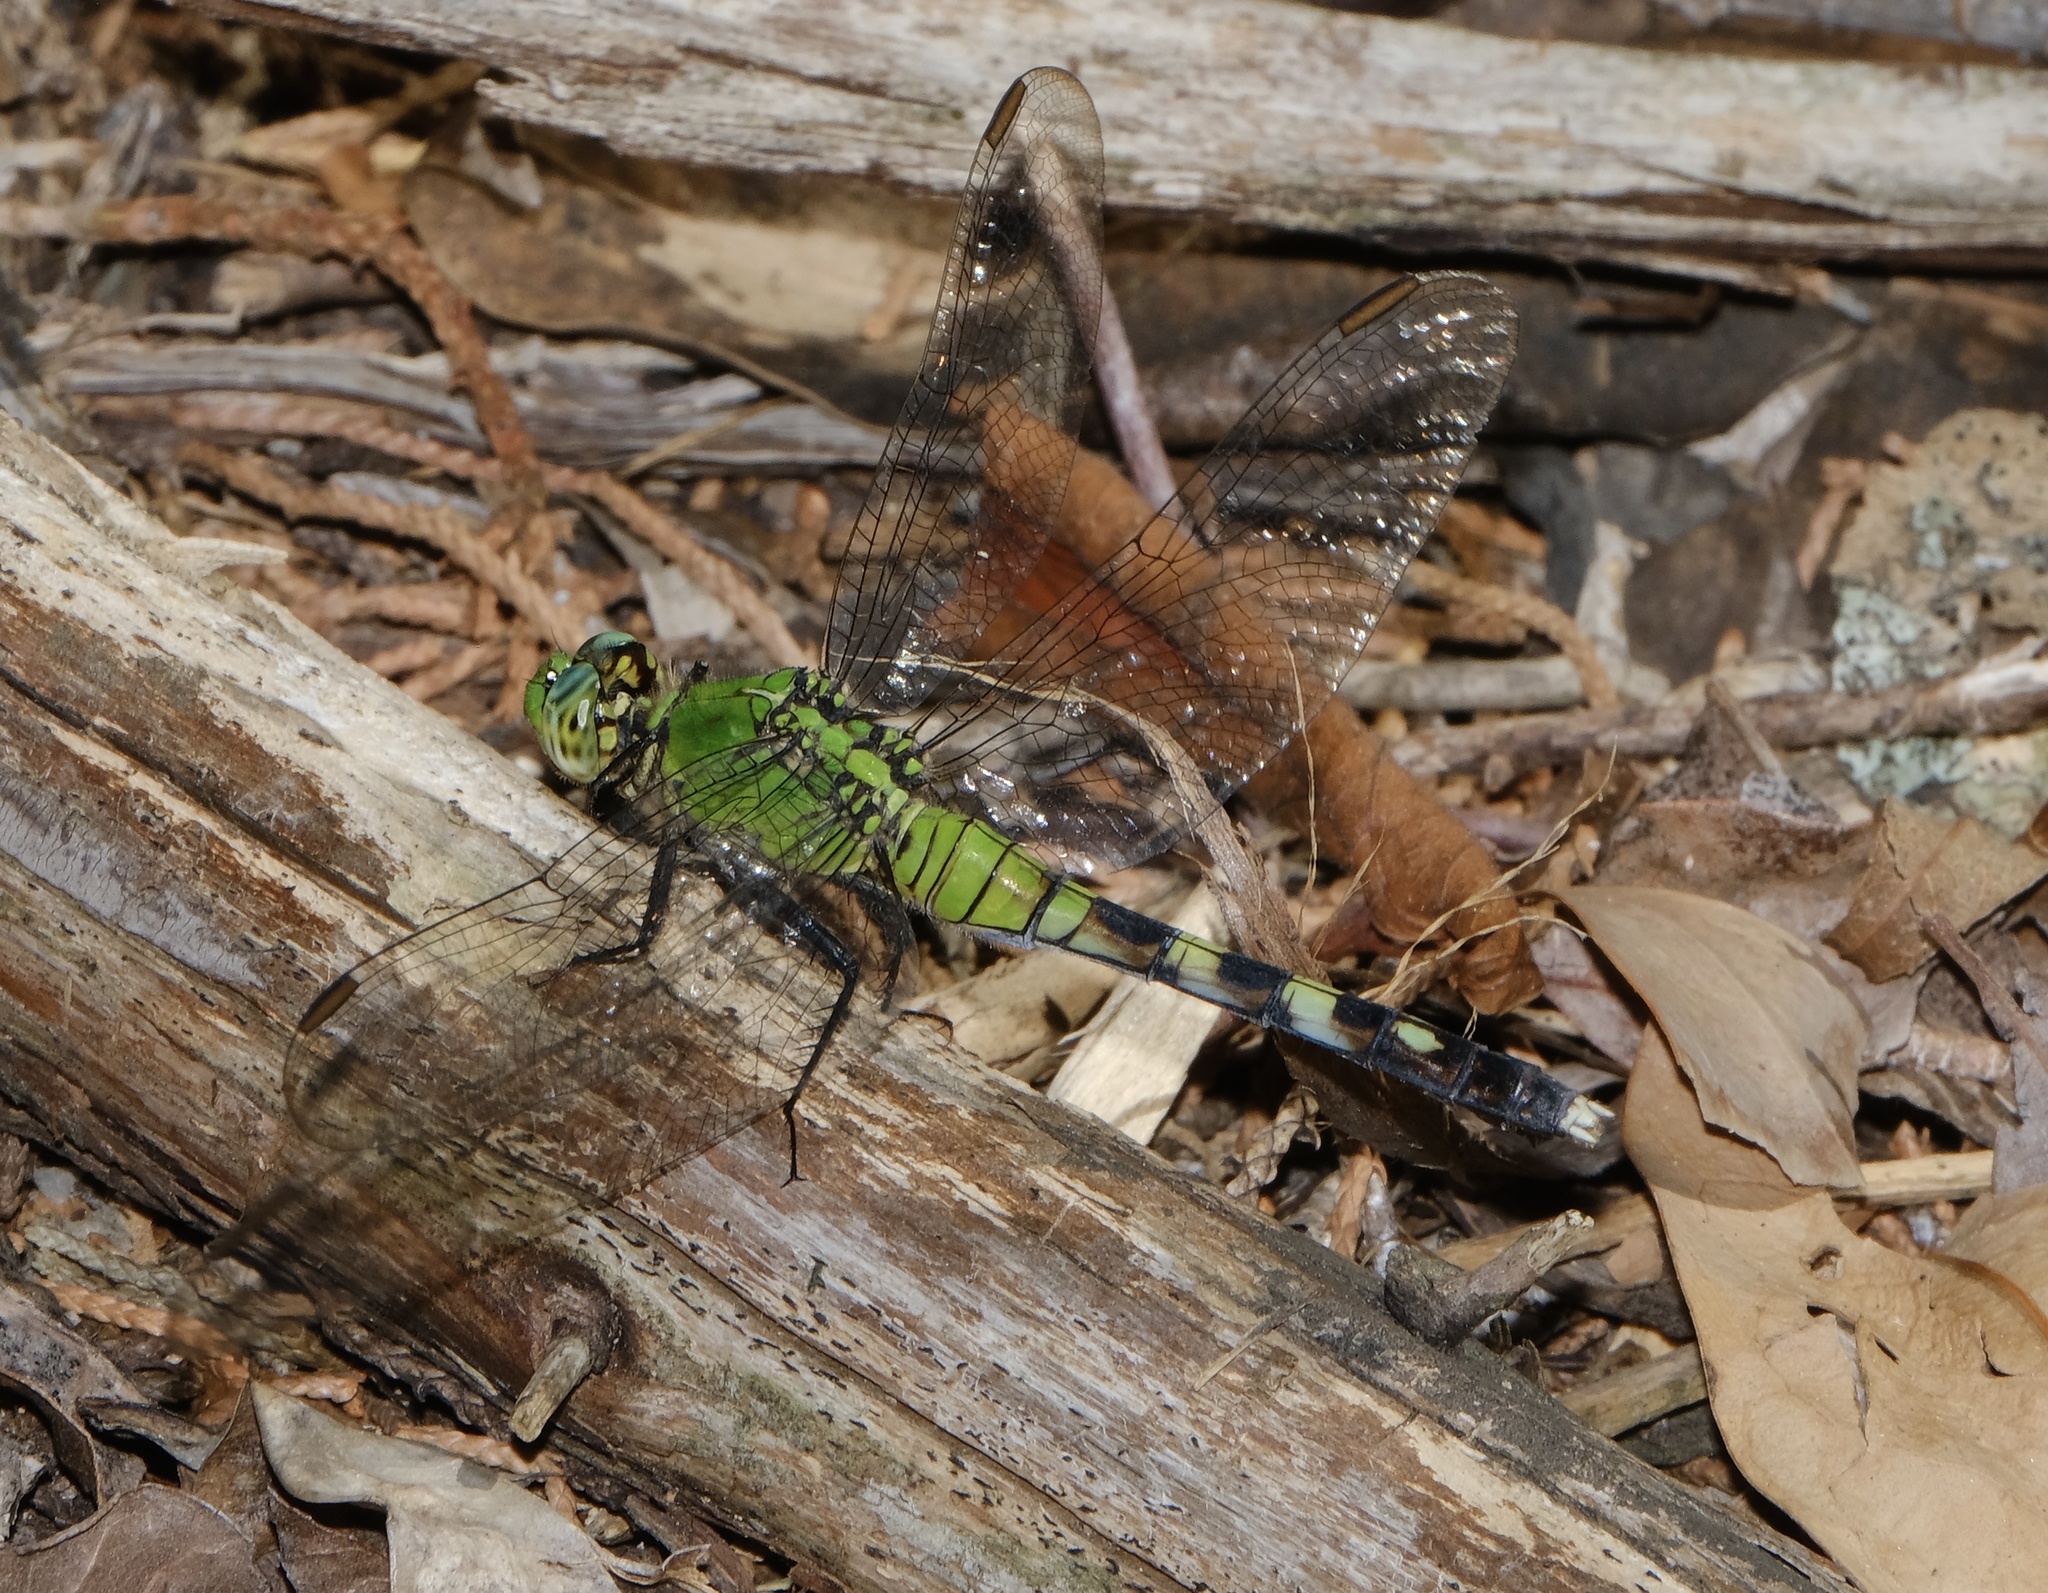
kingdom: Animalia
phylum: Arthropoda
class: Insecta
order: Odonata
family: Libellulidae
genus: Erythemis
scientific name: Erythemis simplicicollis
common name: Eastern pondhawk
